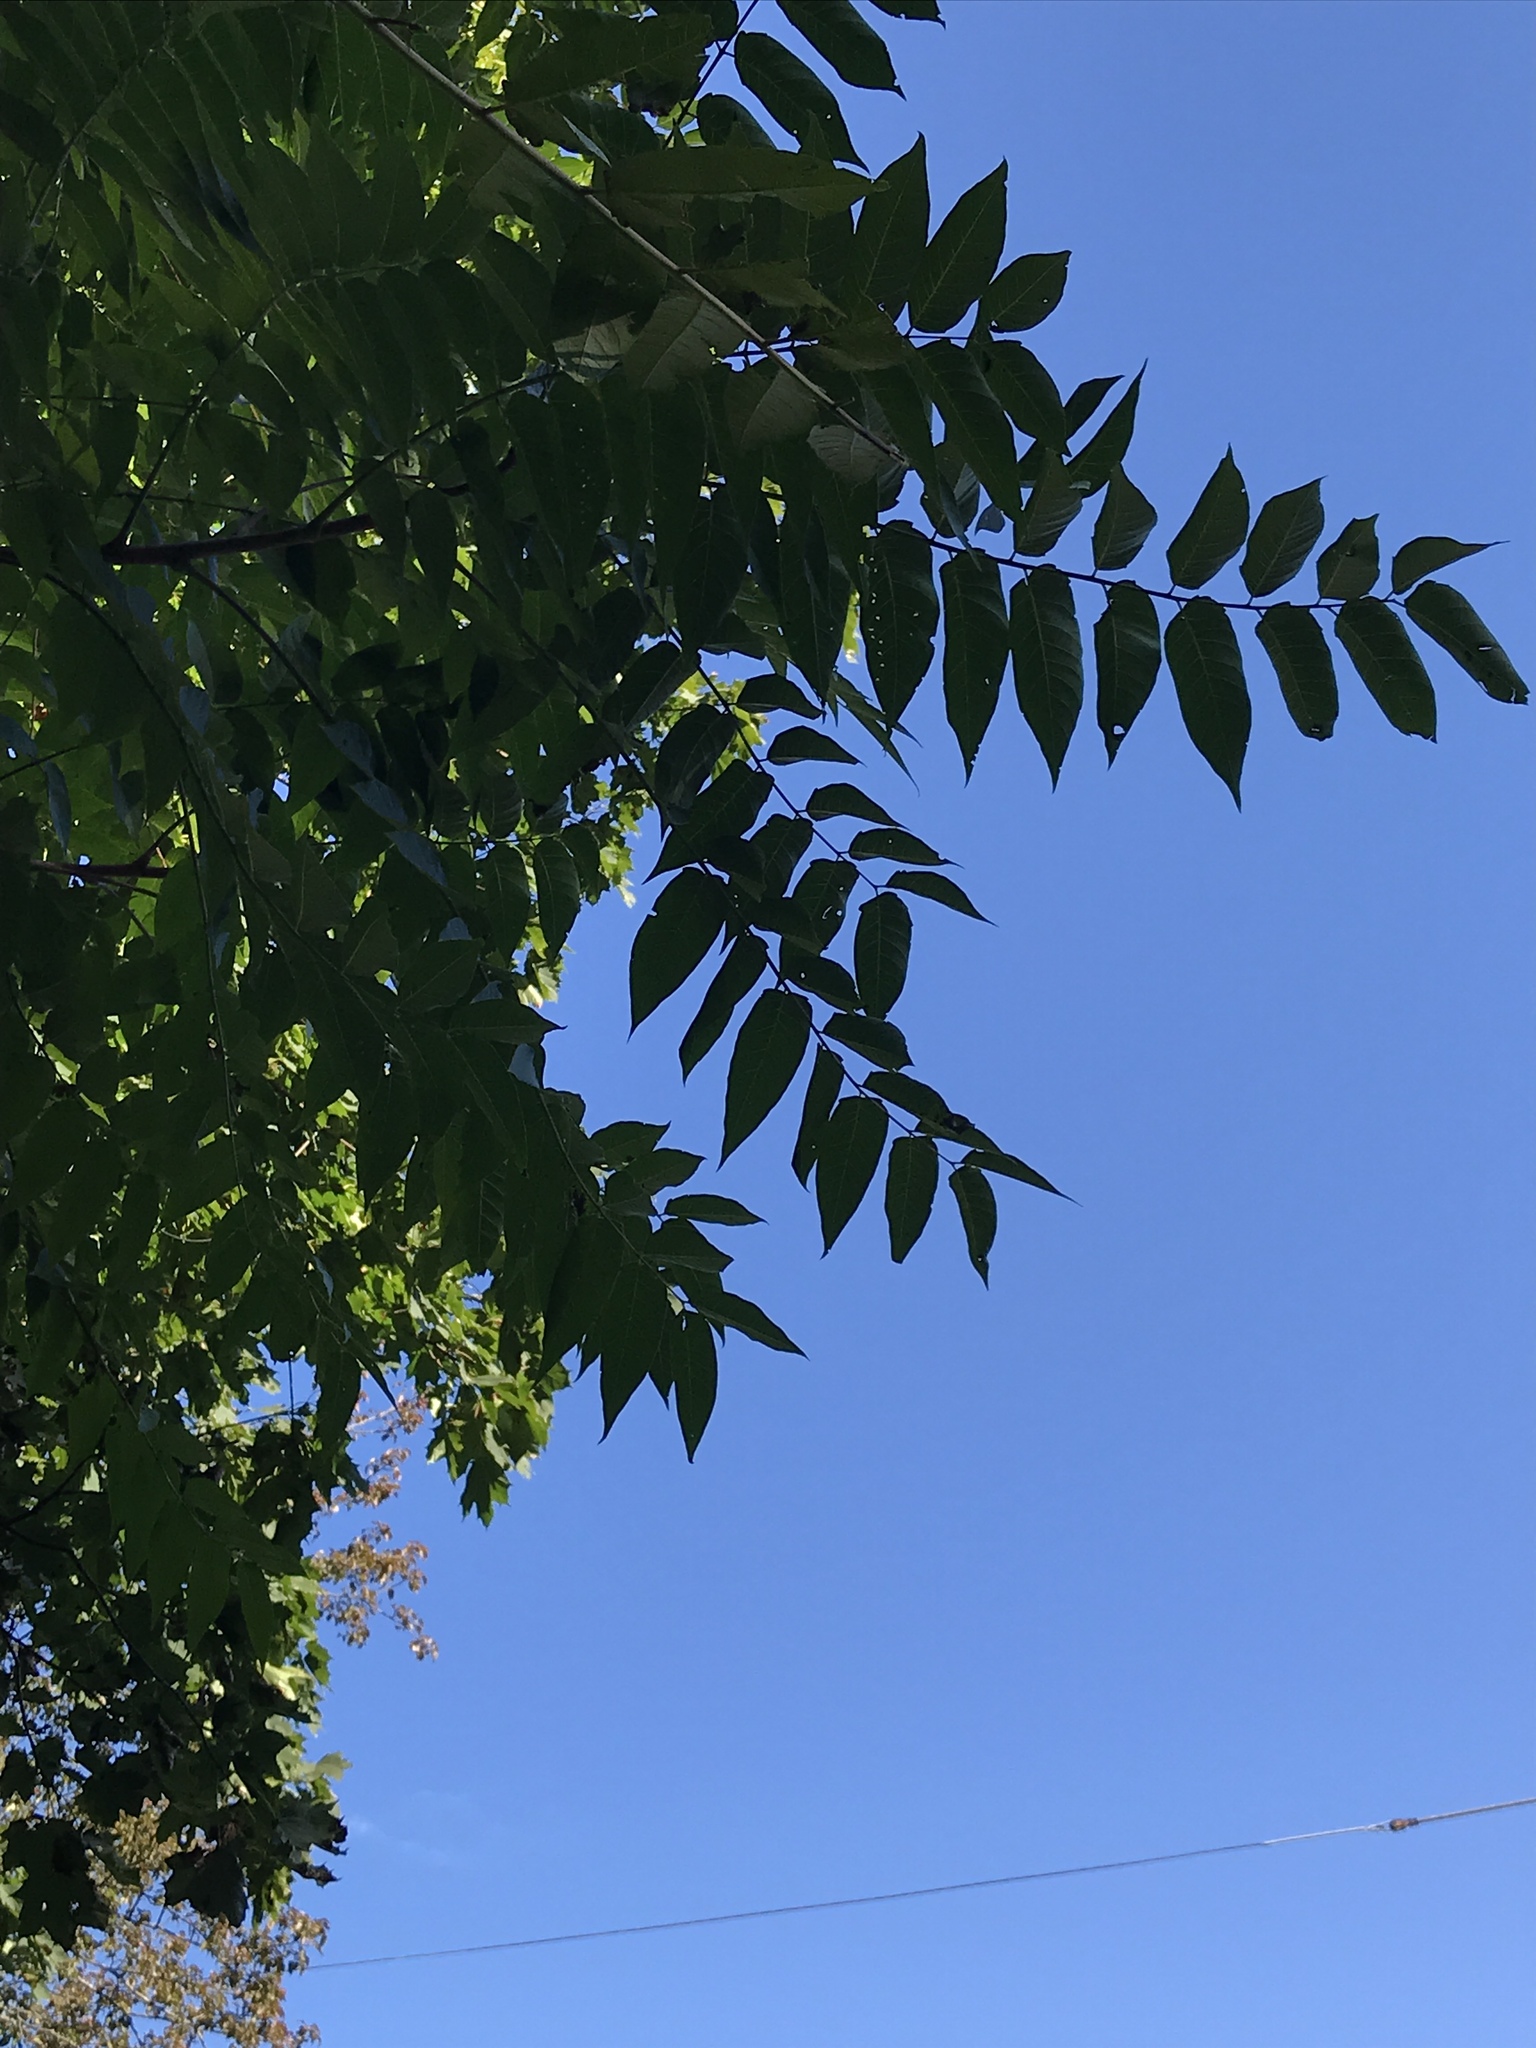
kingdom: Plantae
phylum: Tracheophyta
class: Magnoliopsida
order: Fagales
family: Juglandaceae
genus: Juglans
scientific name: Juglans nigra
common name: Black walnut
